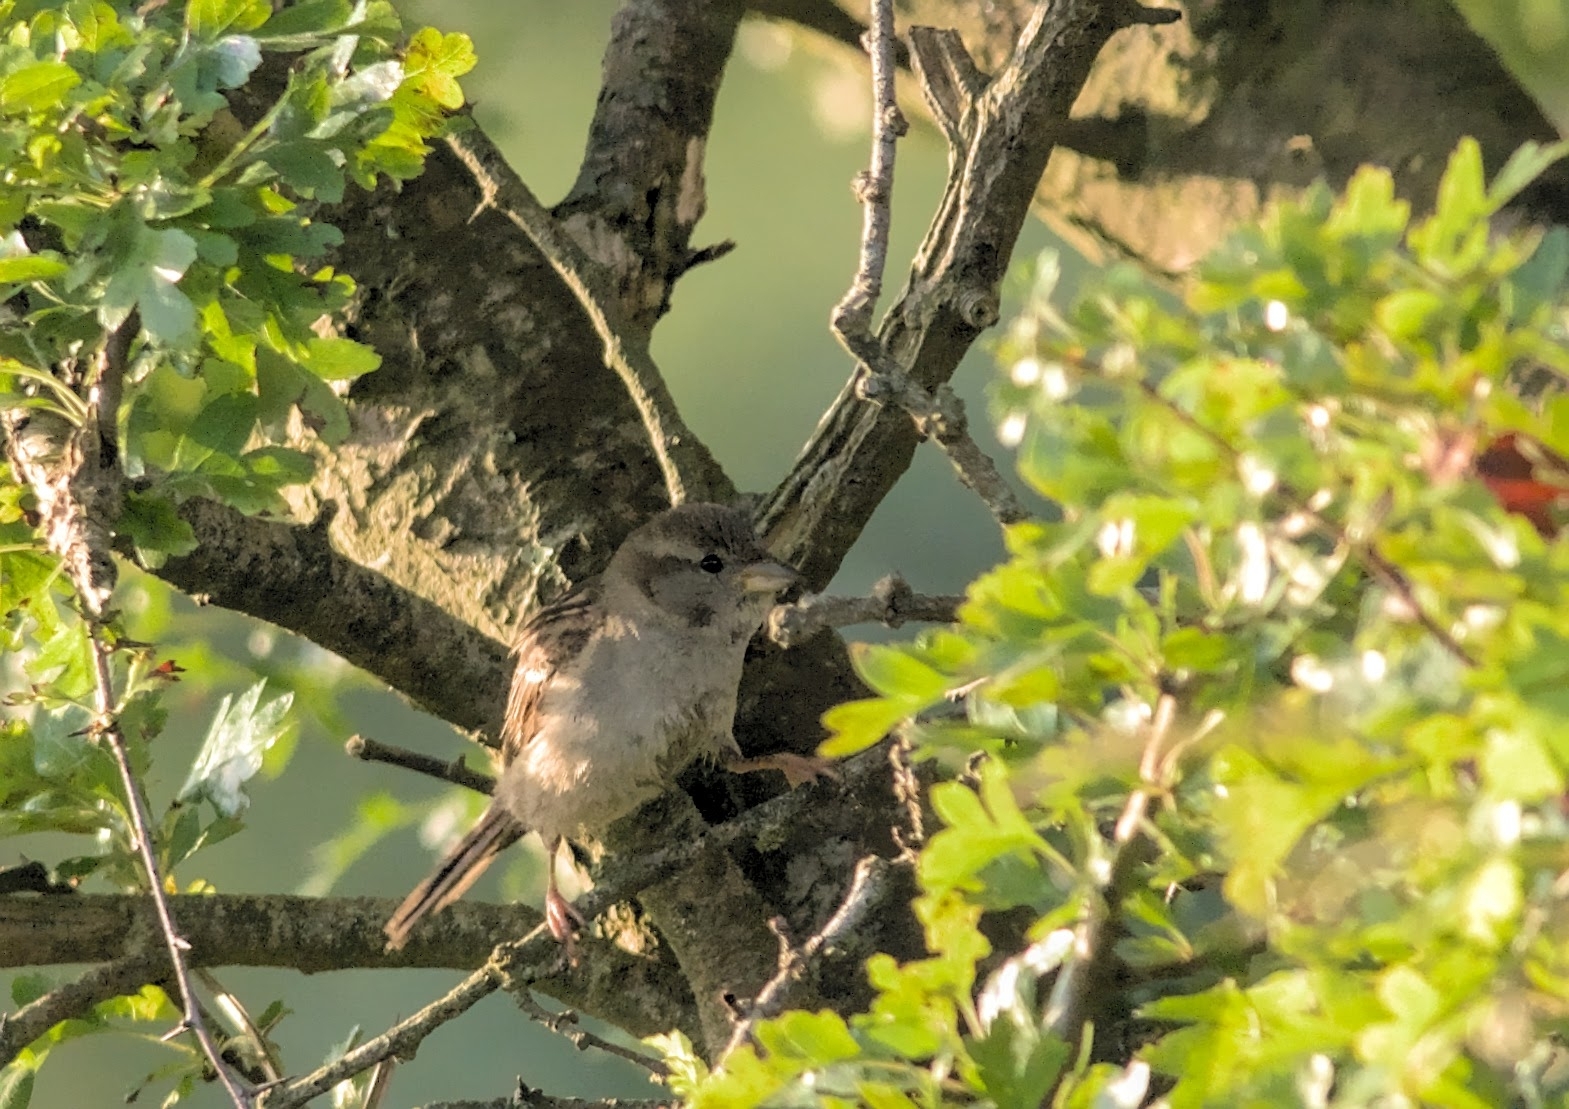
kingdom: Animalia
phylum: Chordata
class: Aves
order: Passeriformes
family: Passeridae
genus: Passer
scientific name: Passer domesticus
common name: House sparrow
